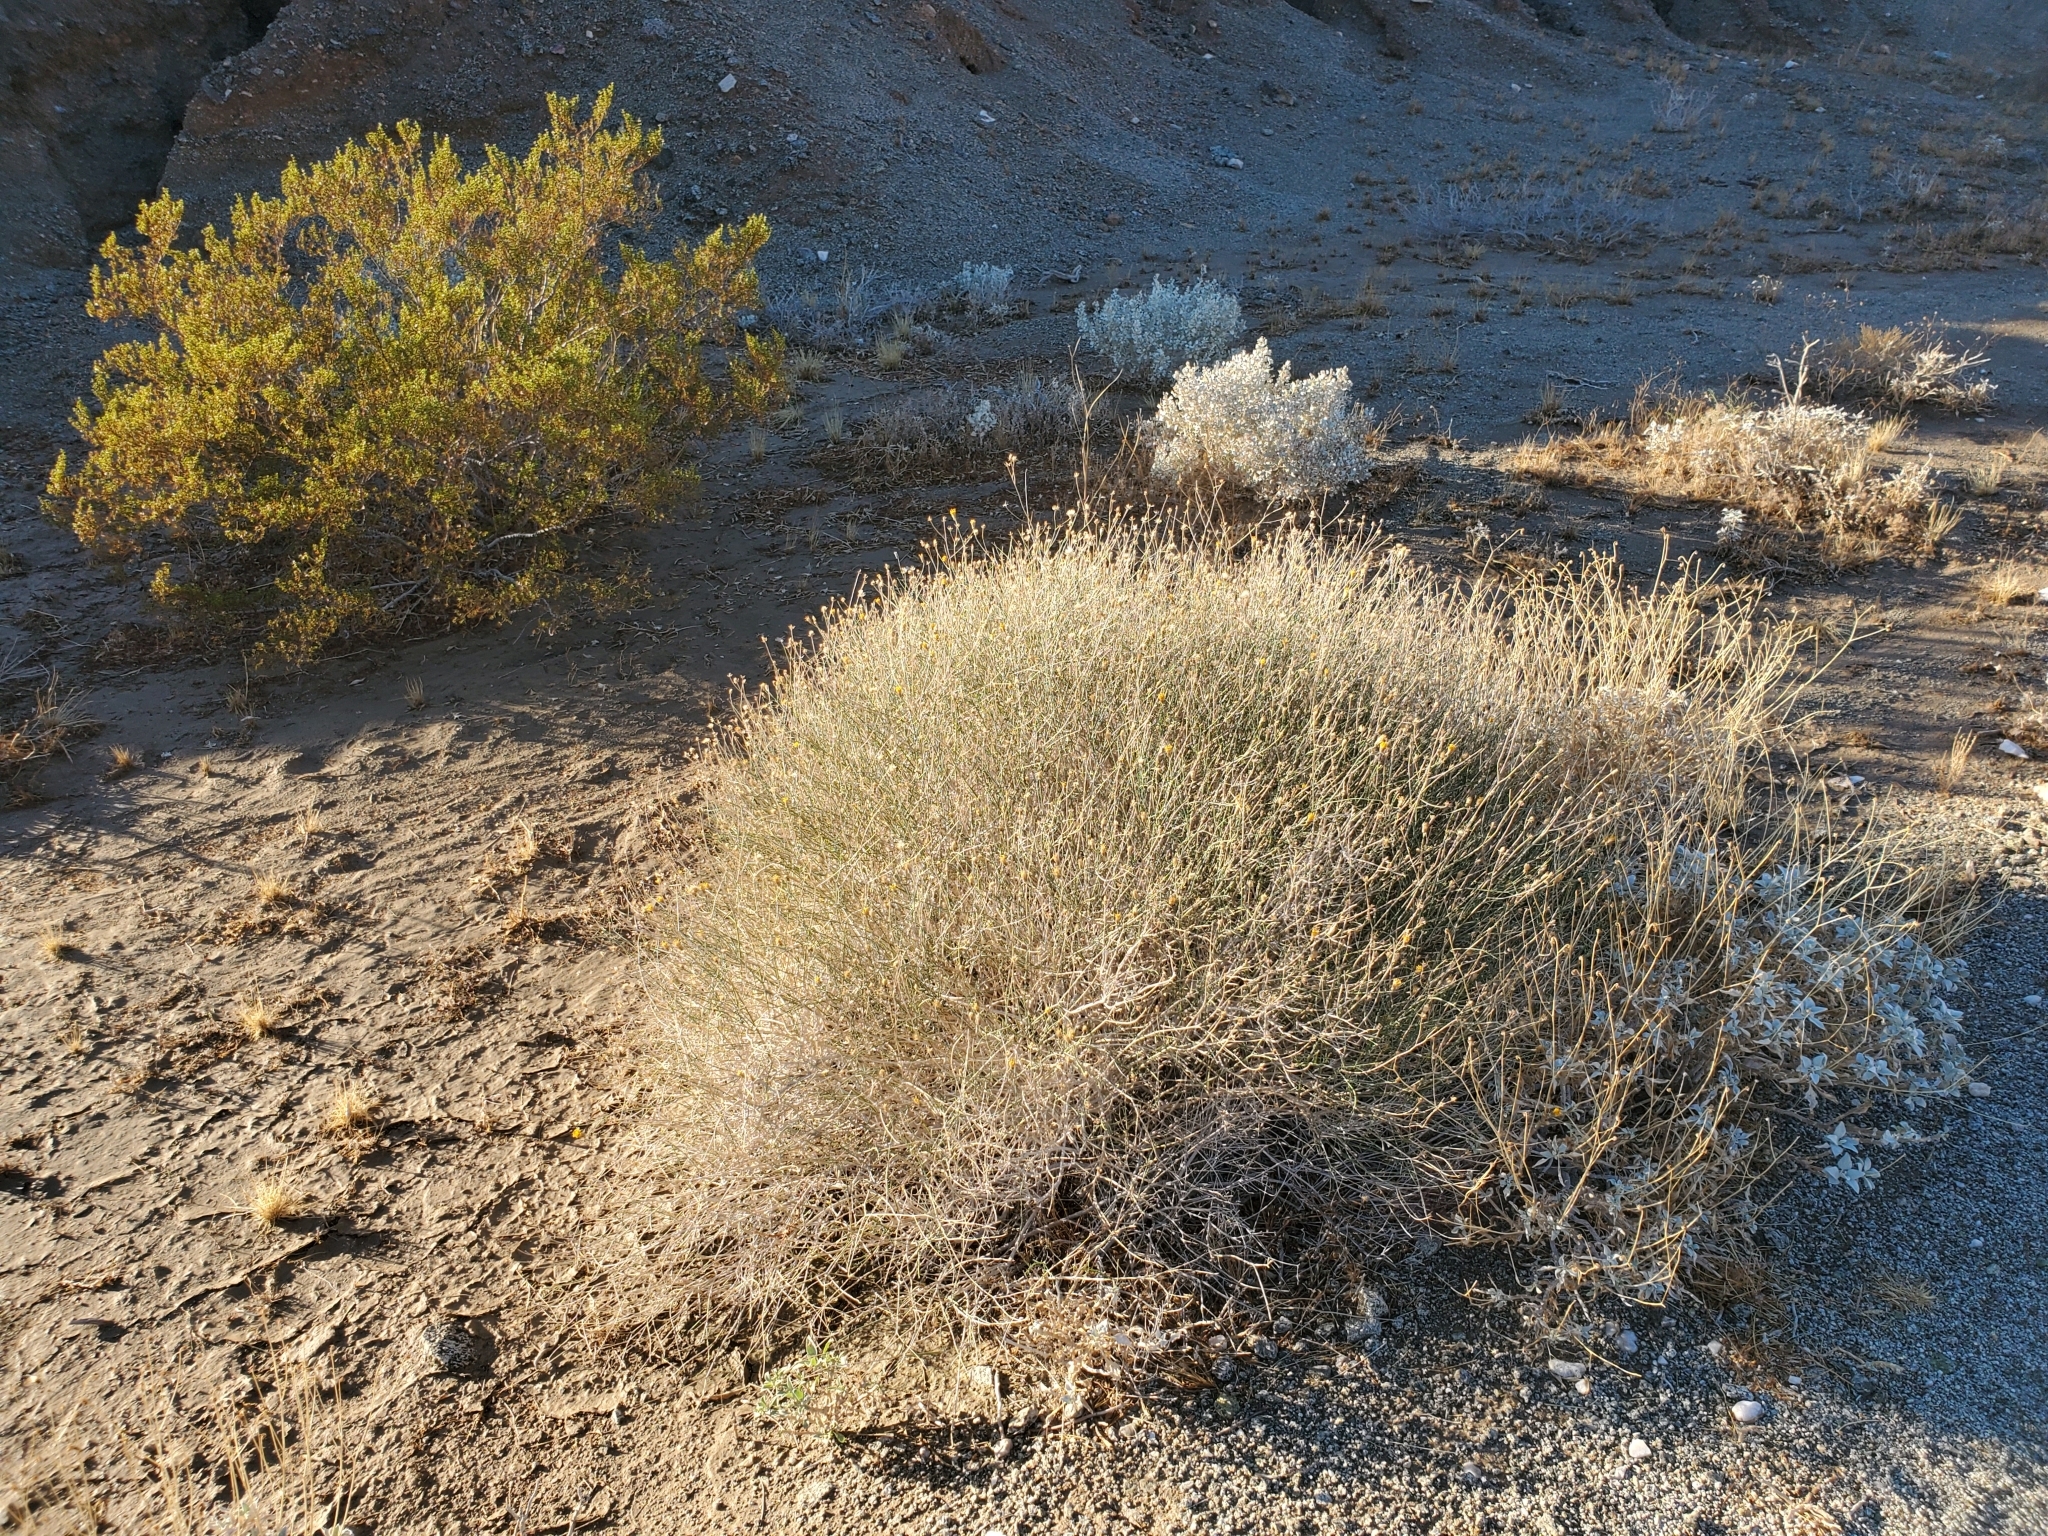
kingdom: Plantae
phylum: Tracheophyta
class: Magnoliopsida
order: Asterales
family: Asteraceae
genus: Bebbia
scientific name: Bebbia juncea
